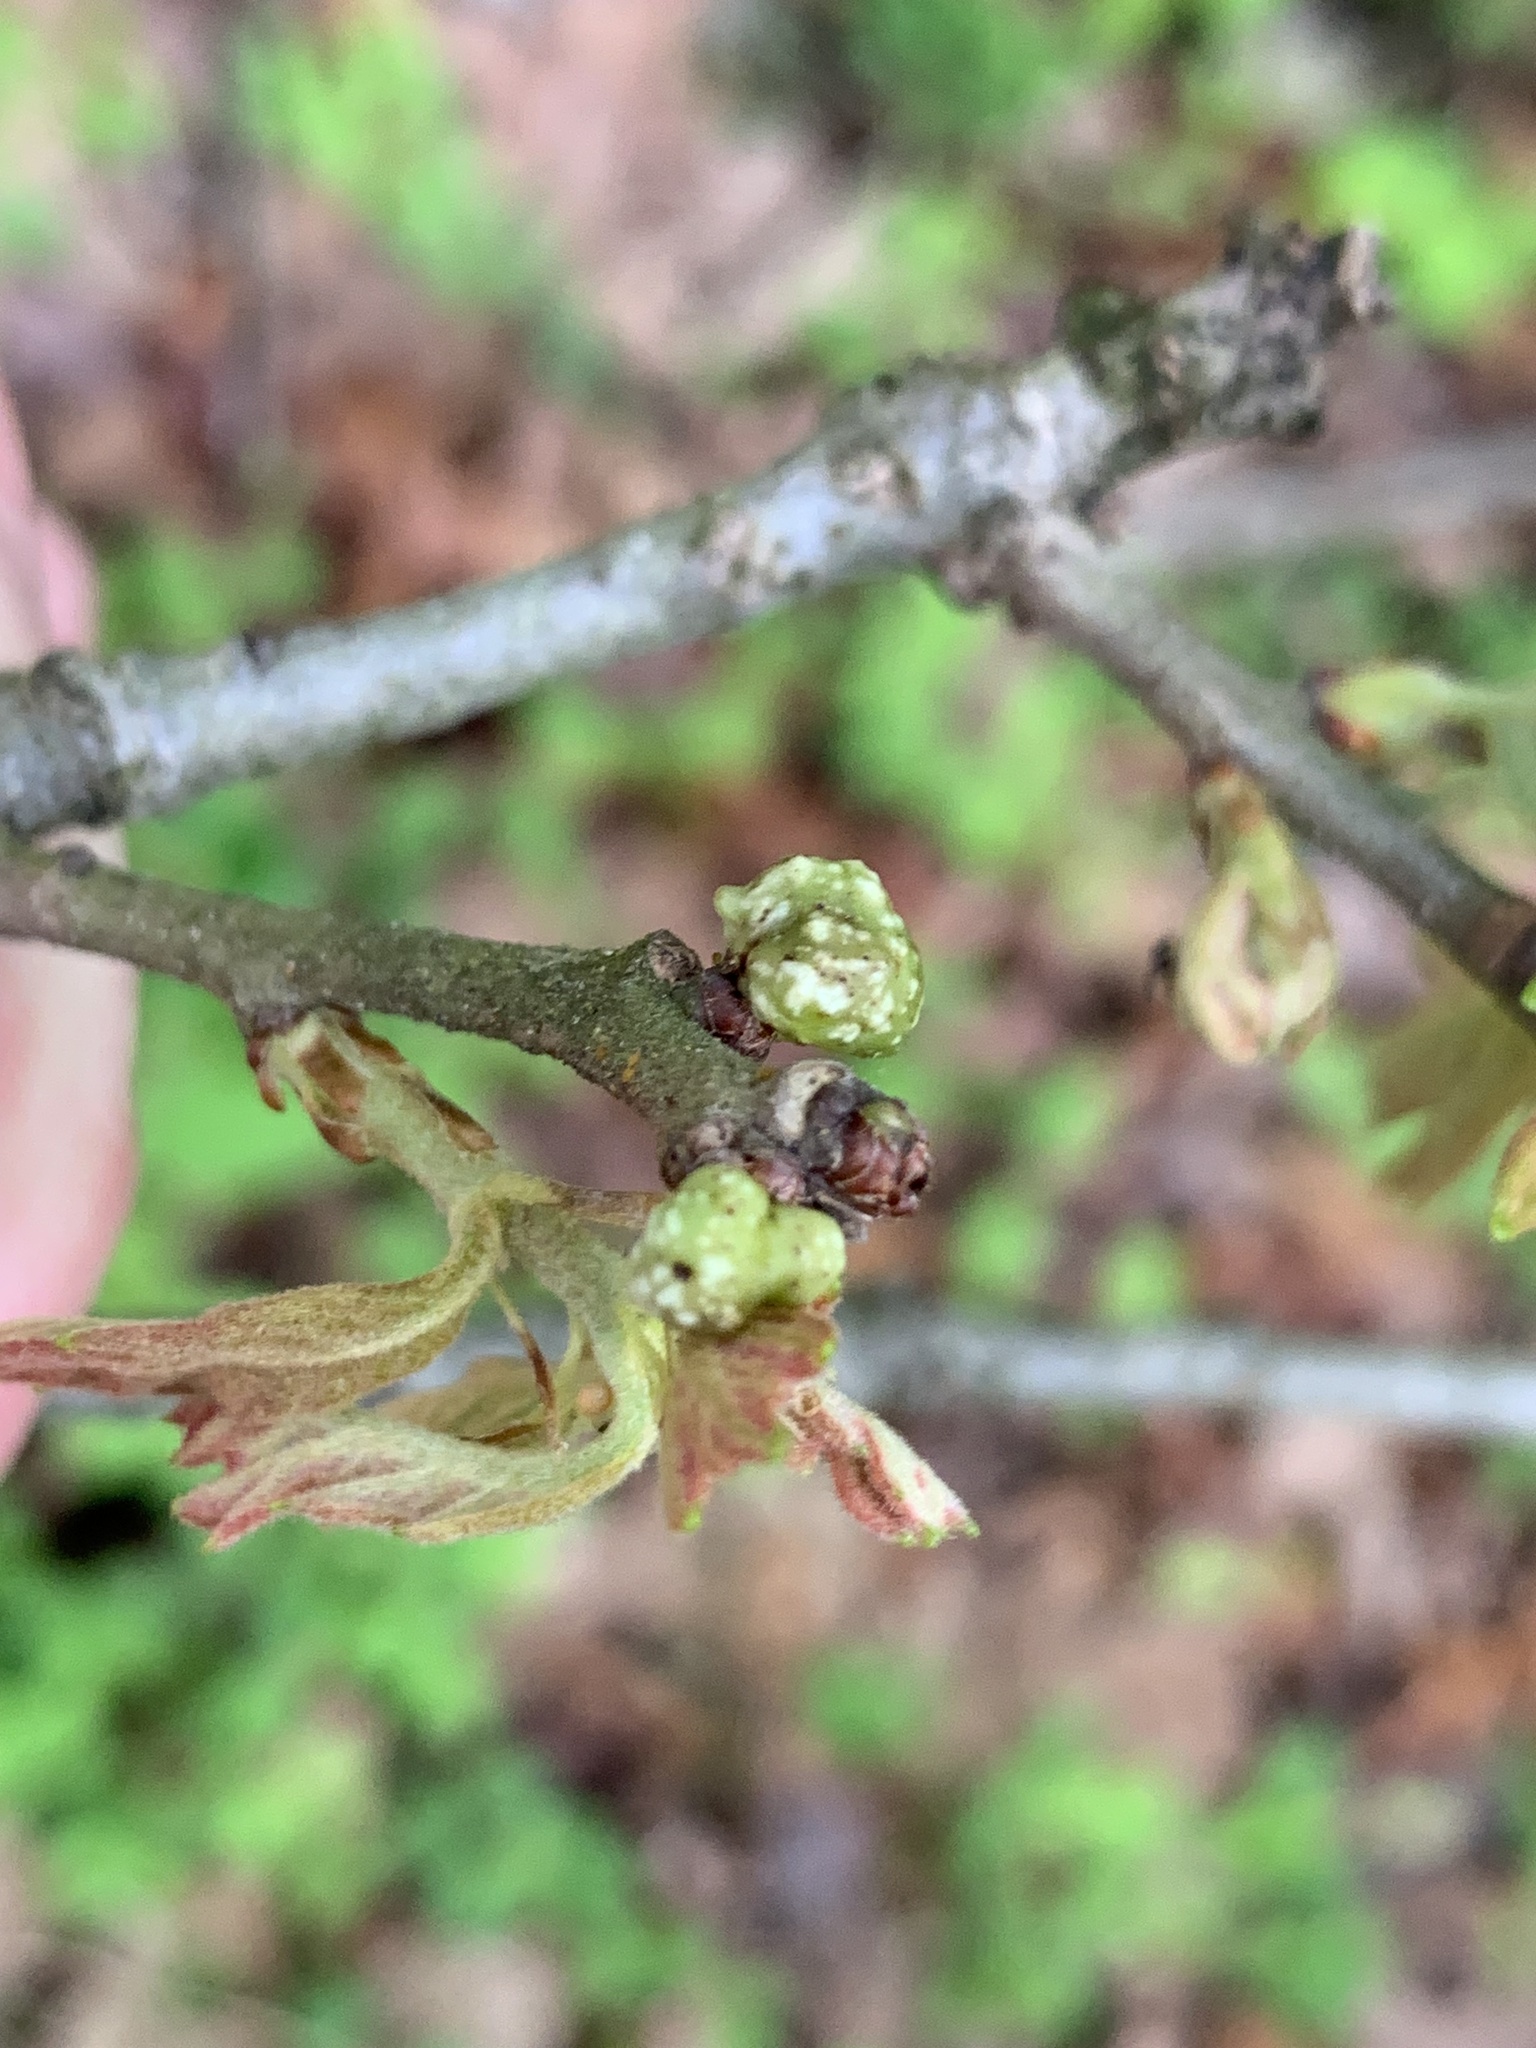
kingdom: Animalia
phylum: Arthropoda
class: Insecta
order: Hymenoptera
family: Cynipidae
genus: Andricus
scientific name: Andricus
